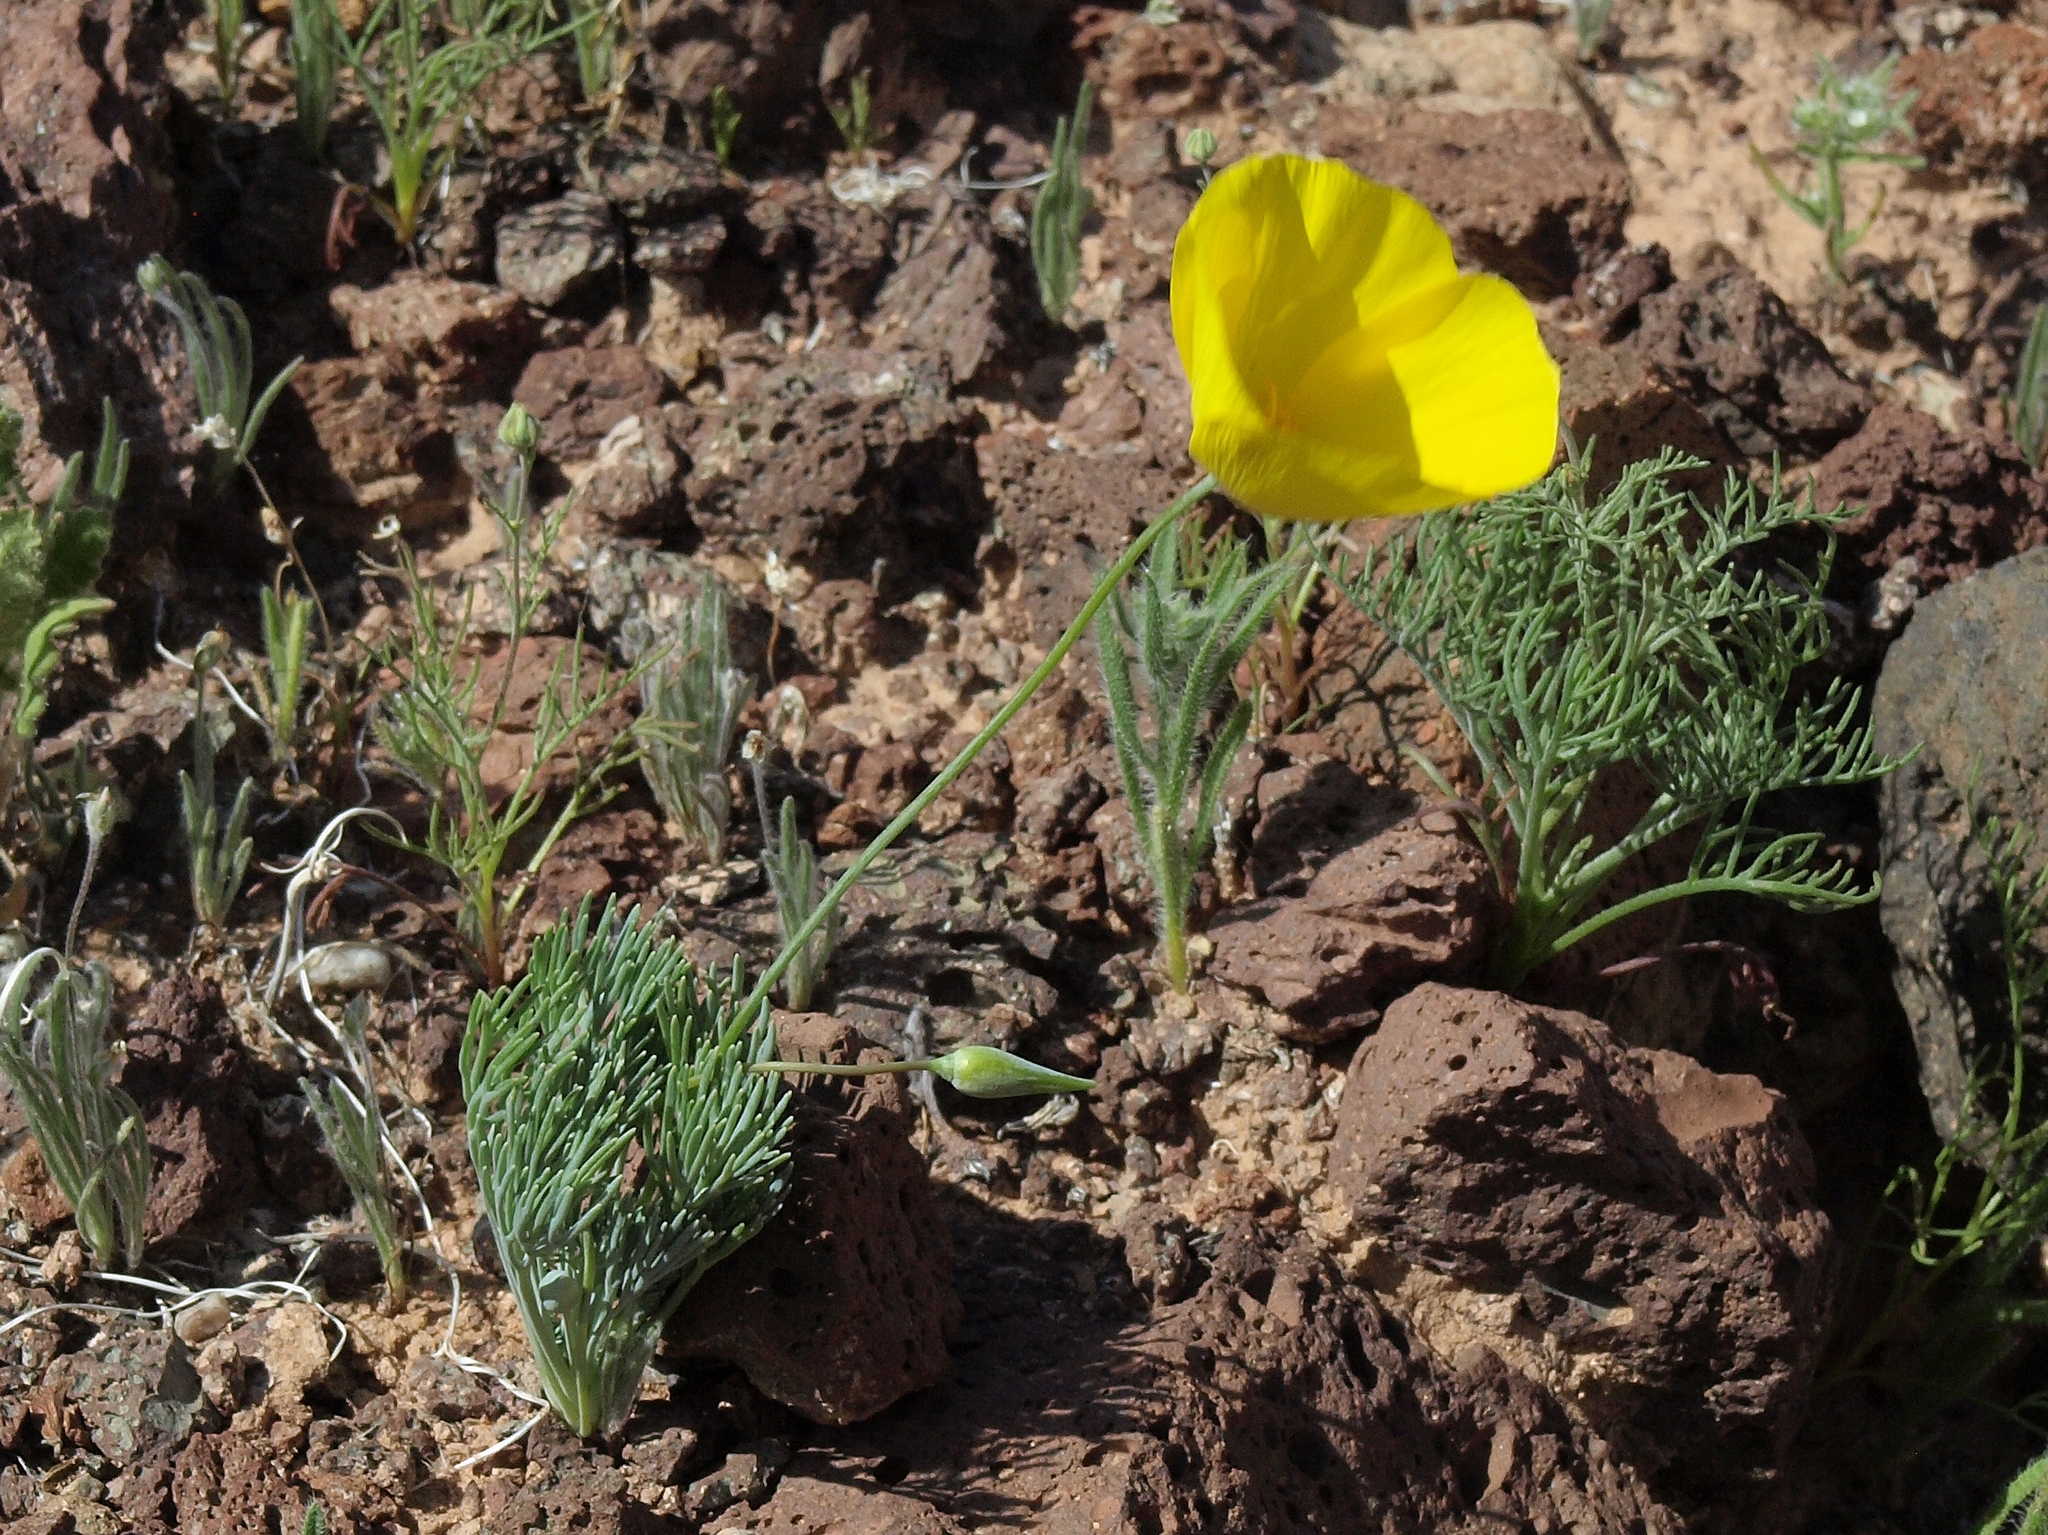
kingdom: Plantae
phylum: Tracheophyta
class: Magnoliopsida
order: Ranunculales
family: Papaveraceae
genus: Eschscholzia
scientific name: Eschscholzia glyptosperma
